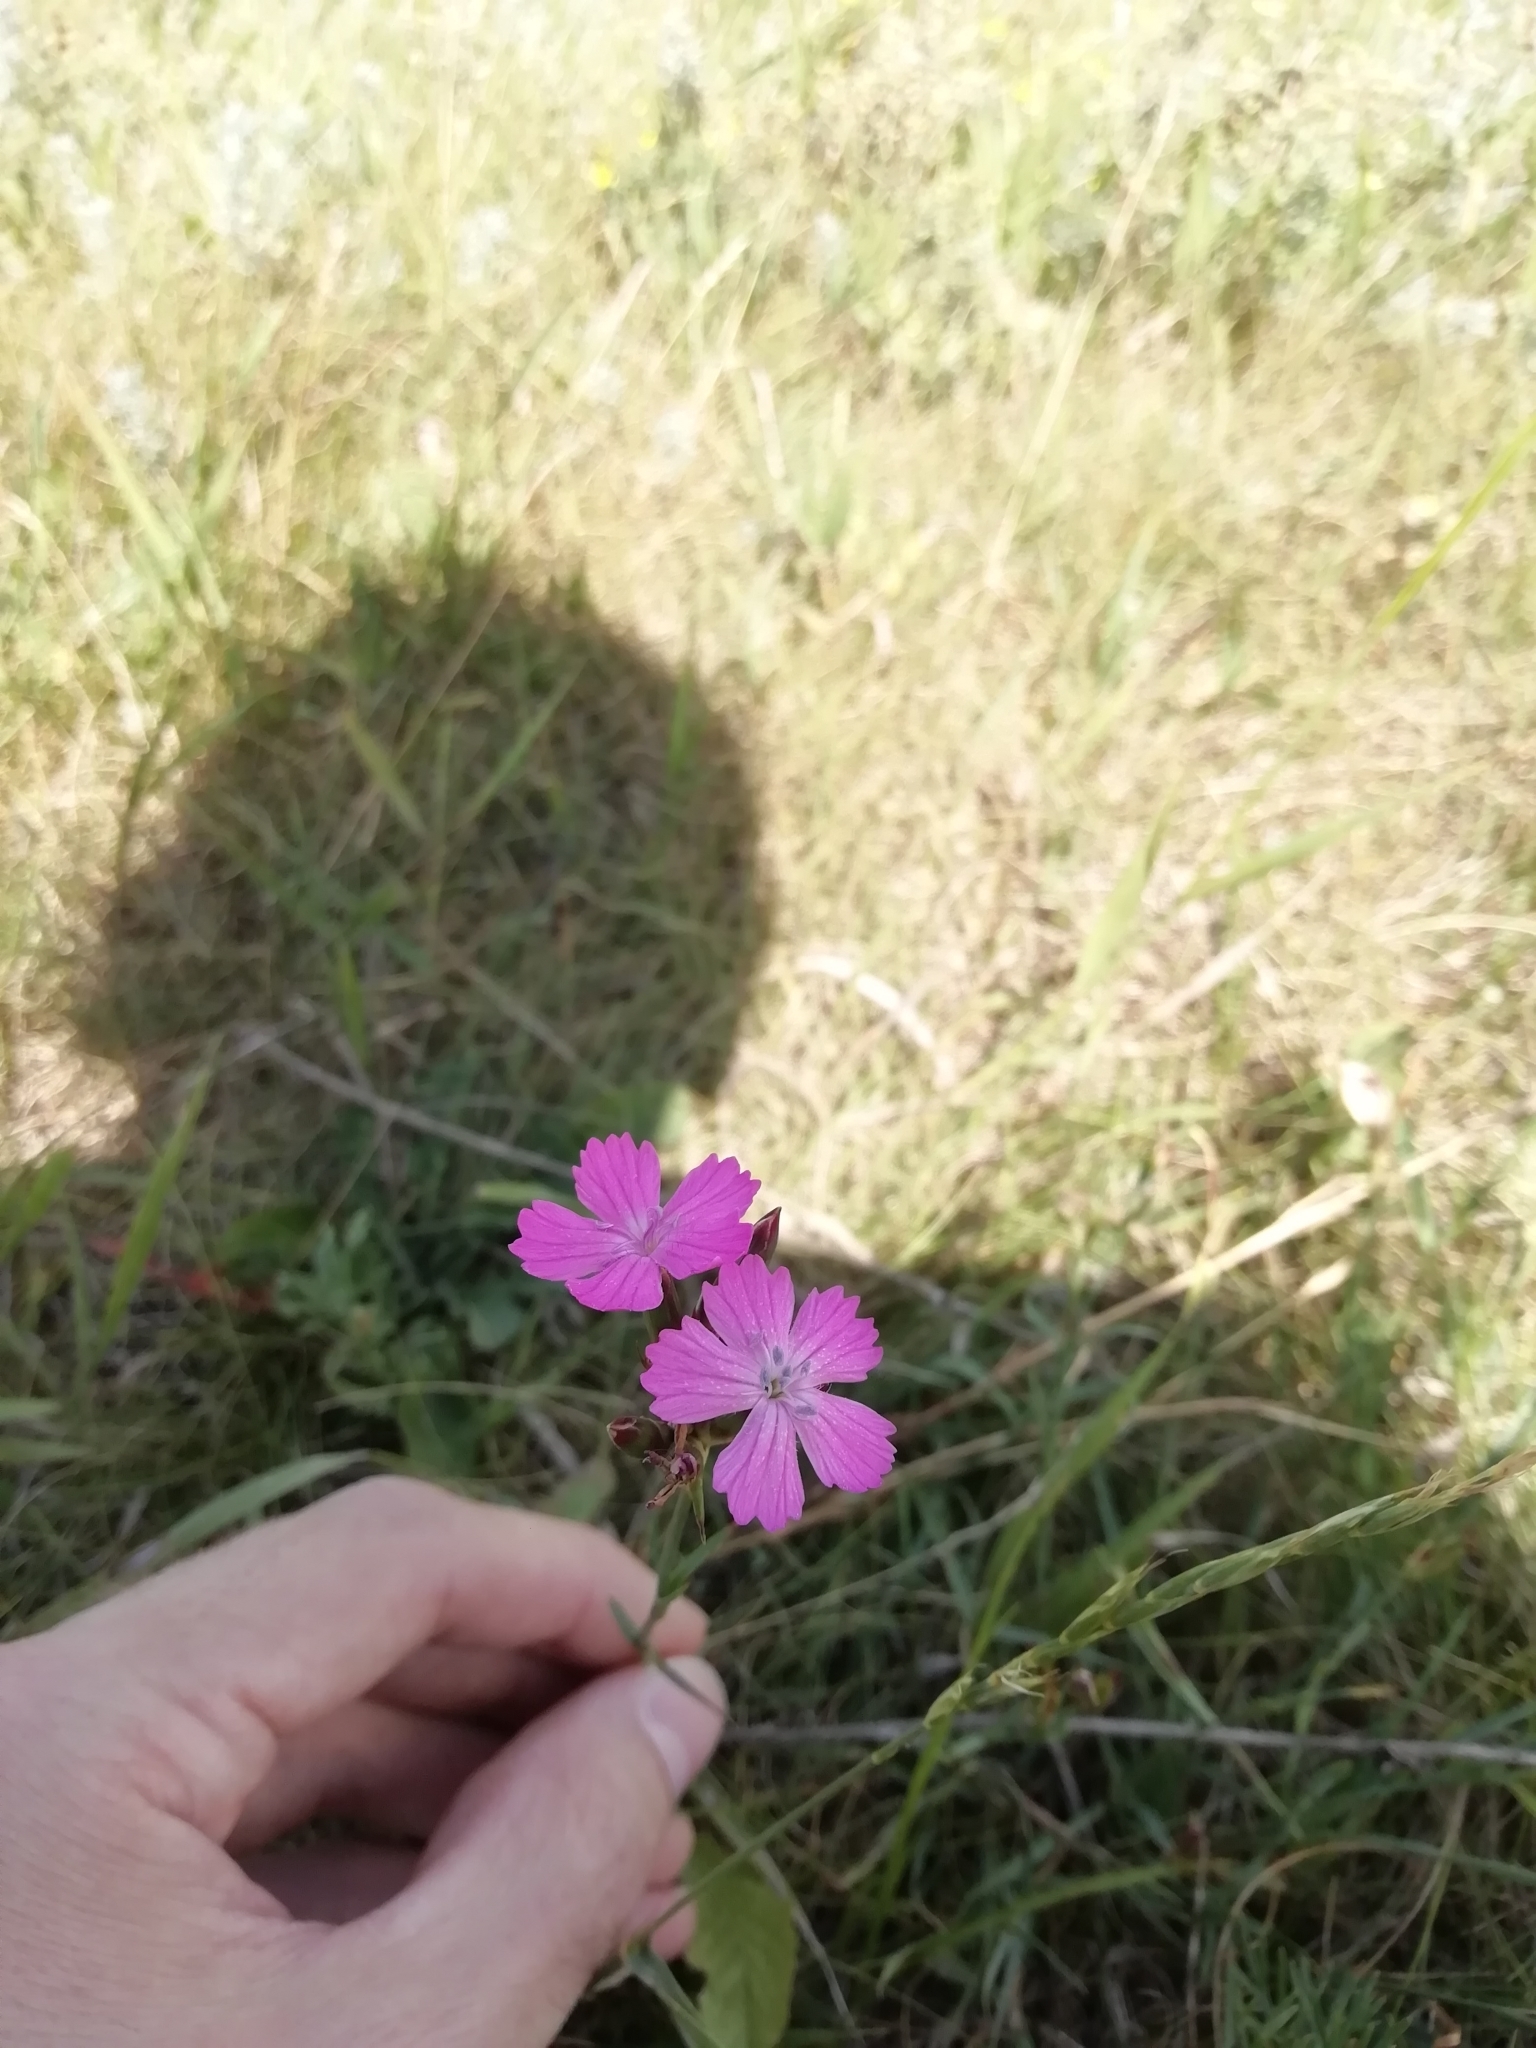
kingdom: Plantae
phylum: Tracheophyta
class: Magnoliopsida
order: Caryophyllales
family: Caryophyllaceae
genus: Dianthus
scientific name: Dianthus borbasii
